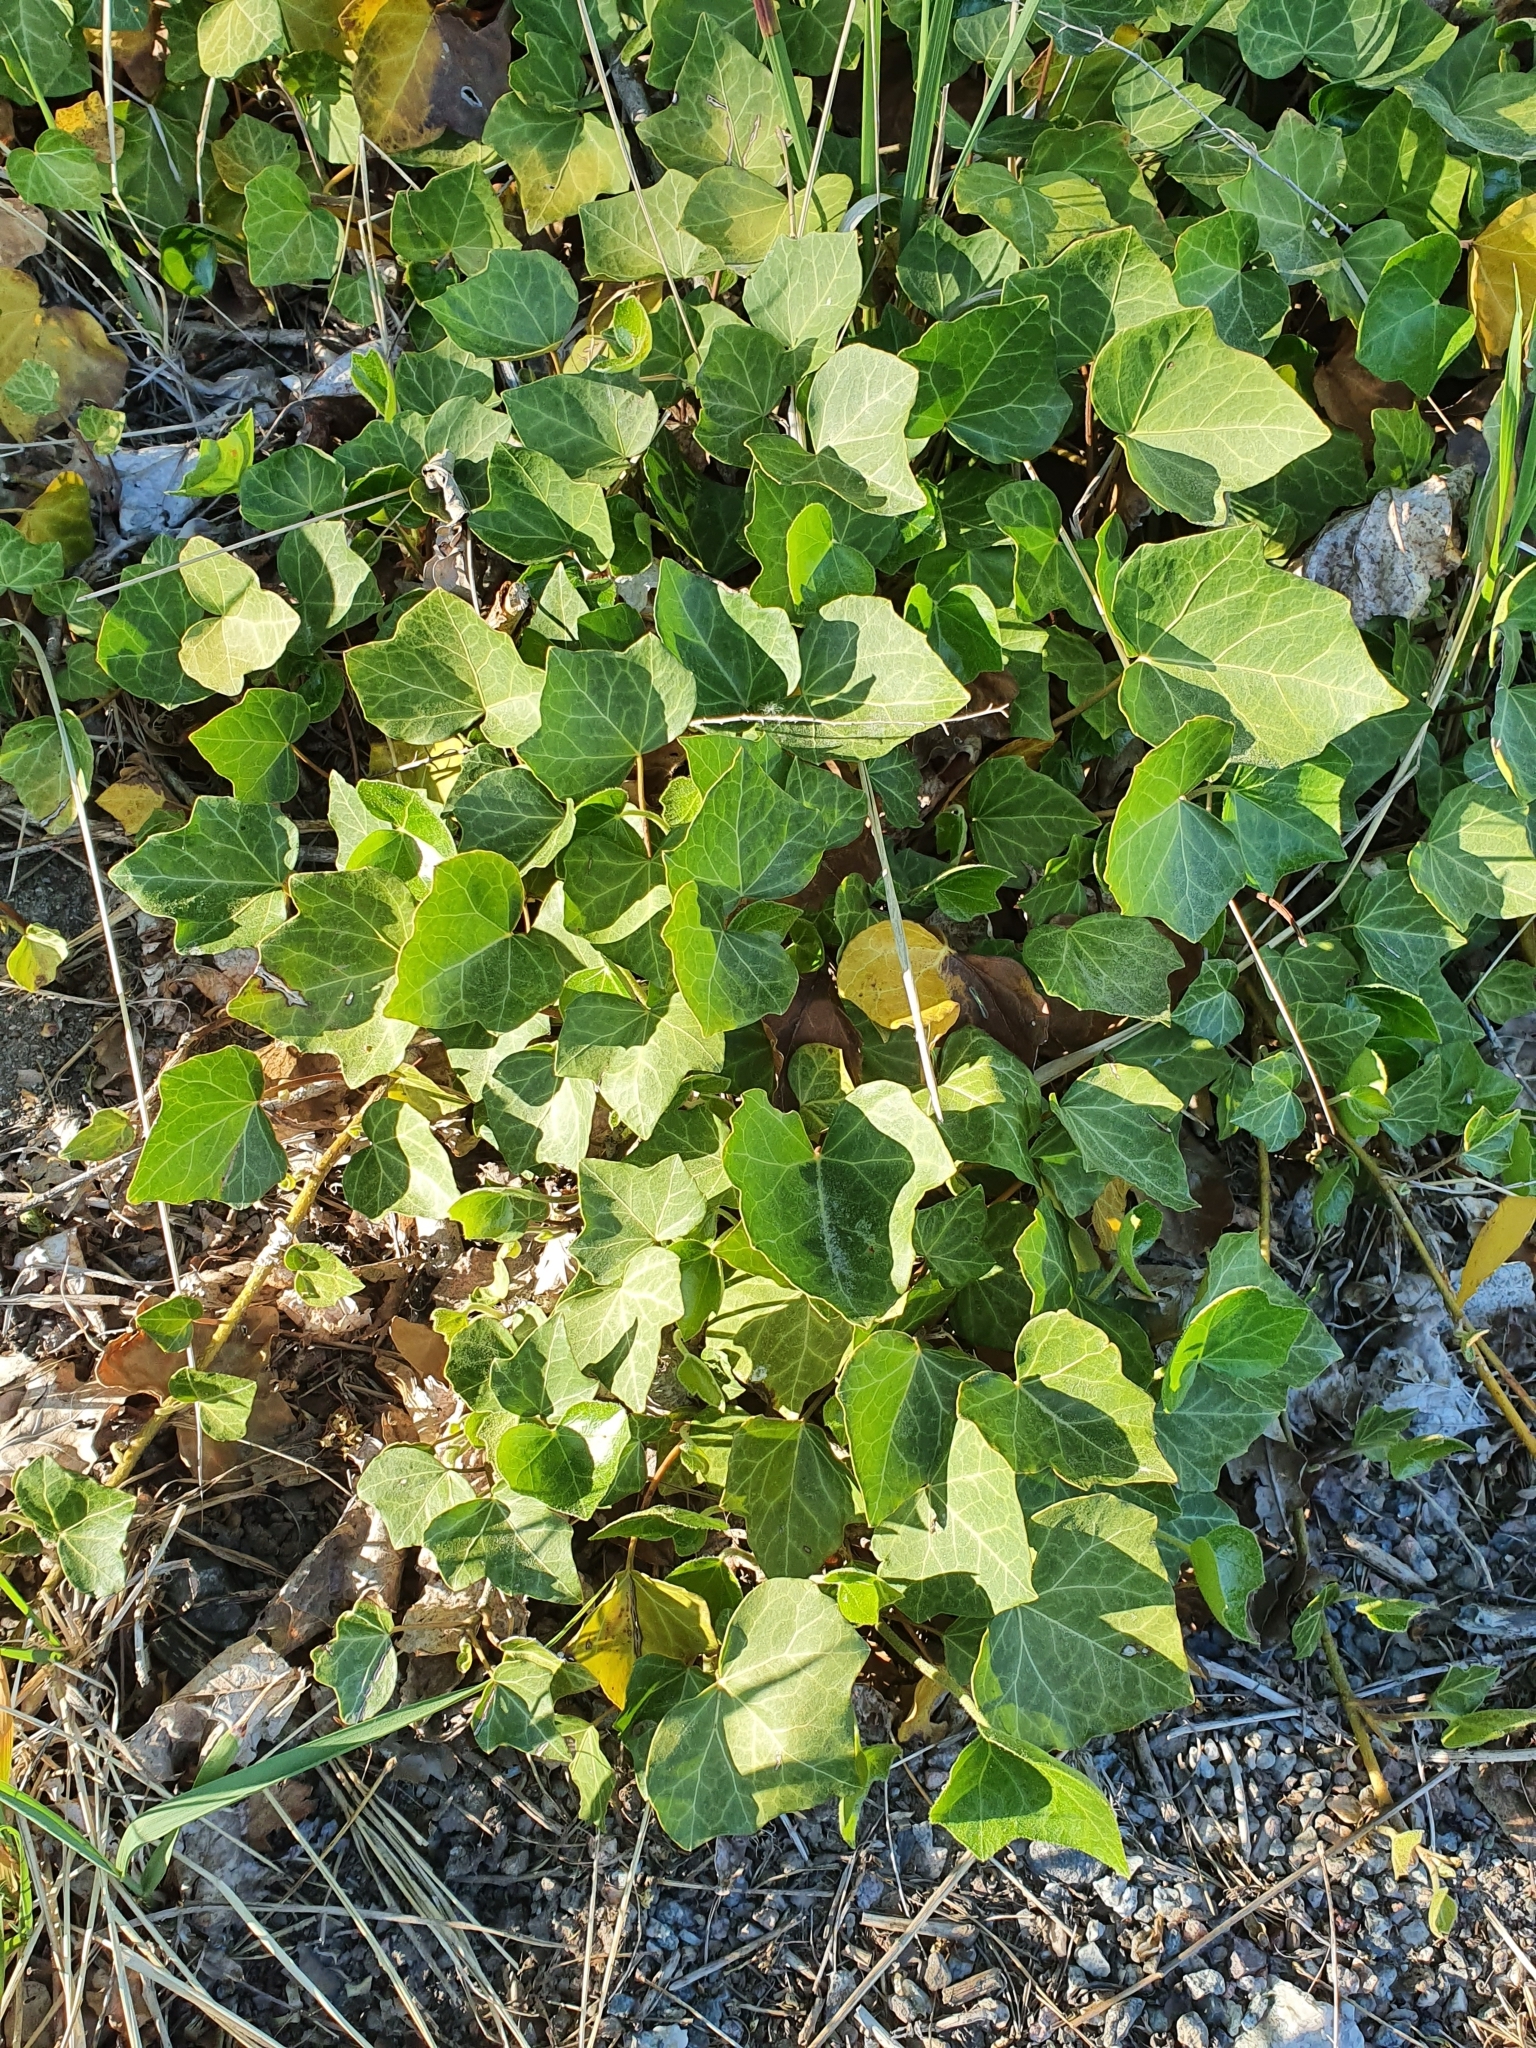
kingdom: Plantae
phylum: Tracheophyta
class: Magnoliopsida
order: Apiales
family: Araliaceae
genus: Hedera
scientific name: Hedera helix
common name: Ivy
